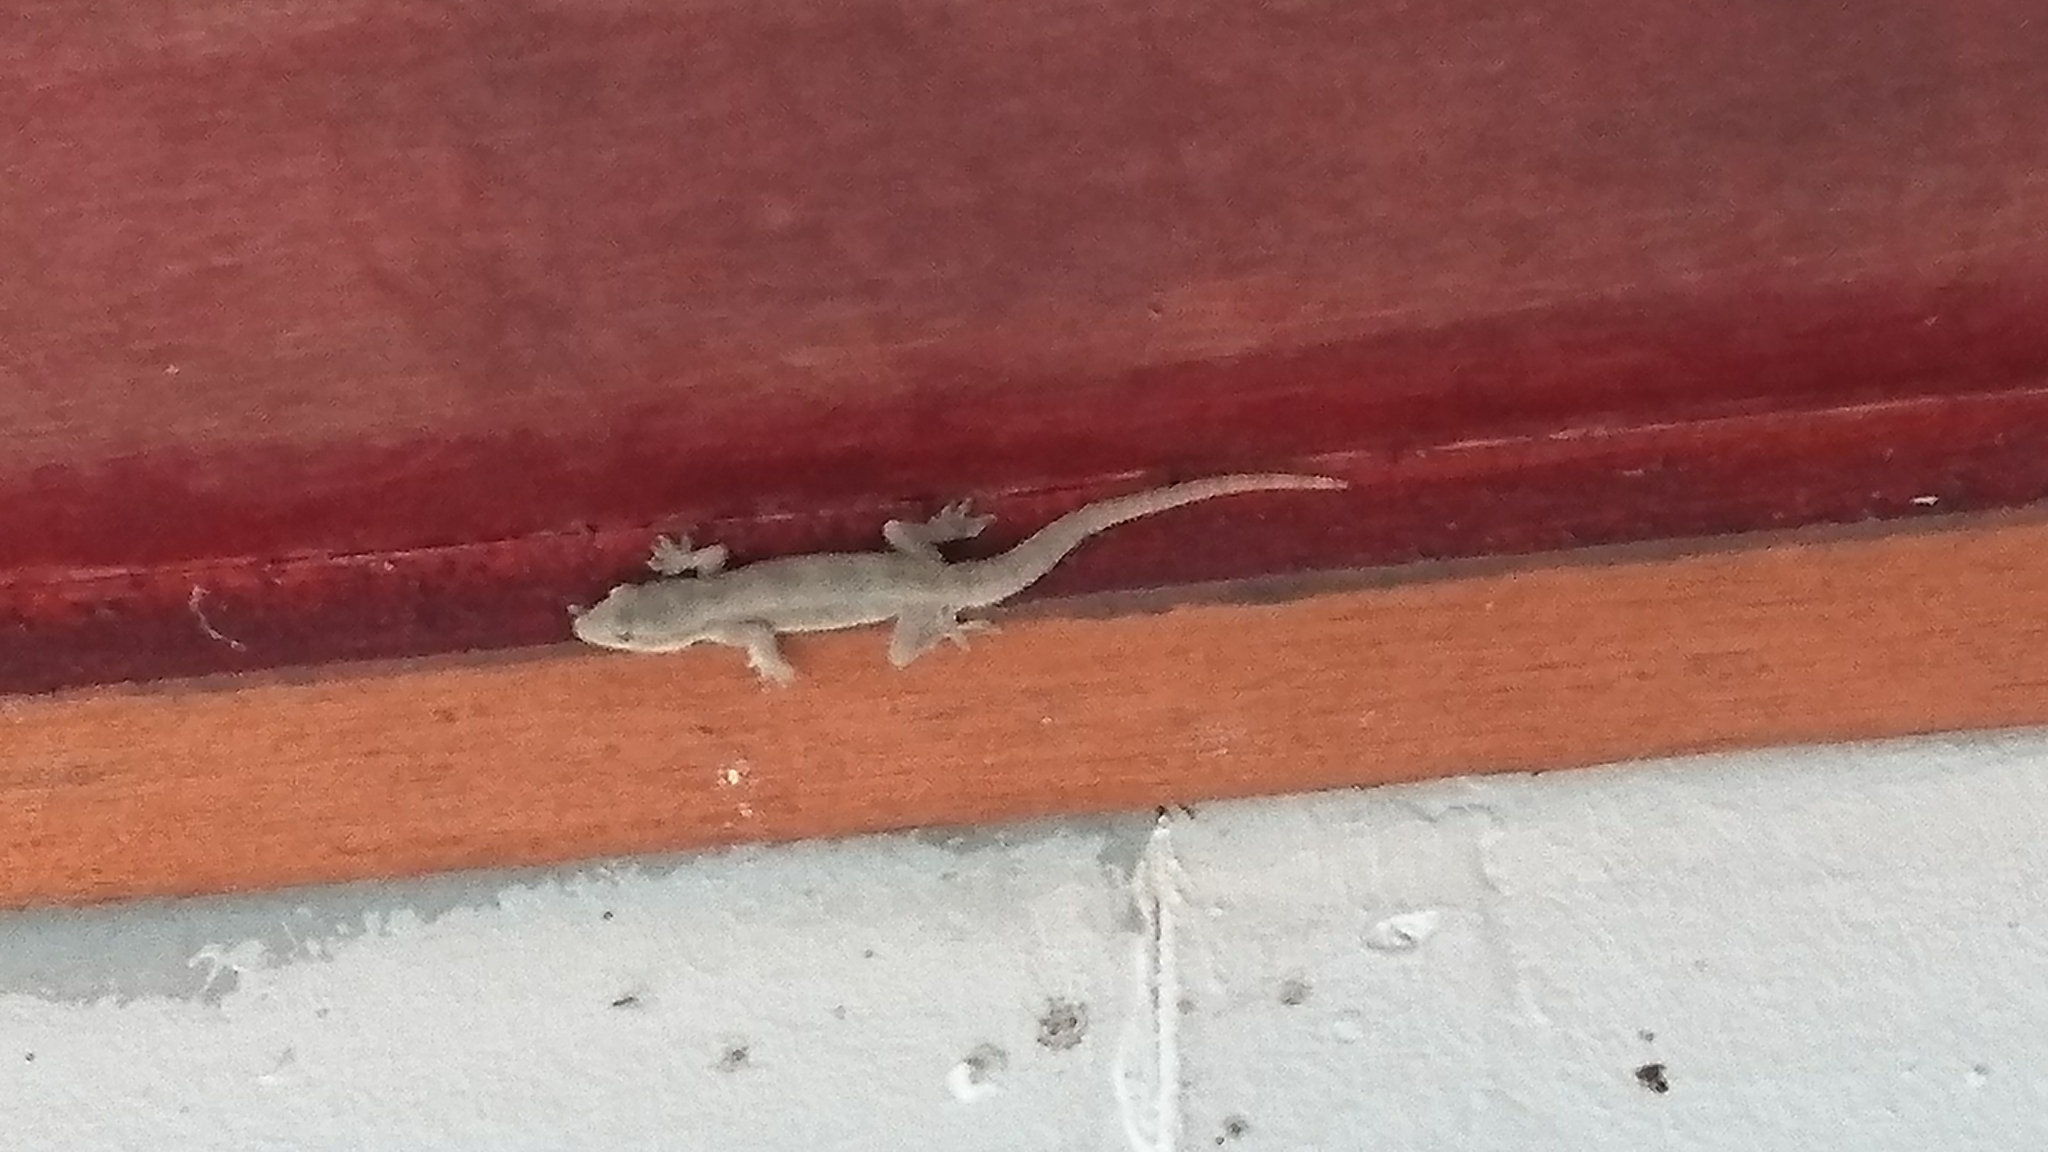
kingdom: Animalia
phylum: Chordata
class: Squamata
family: Gekkonidae
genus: Hemidactylus
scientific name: Hemidactylus platyurus
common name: Flat-tailed house gecko
